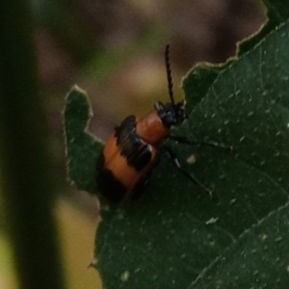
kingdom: Animalia
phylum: Arthropoda
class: Insecta
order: Coleoptera
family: Chrysomelidae
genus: Lema
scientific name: Lema solani
